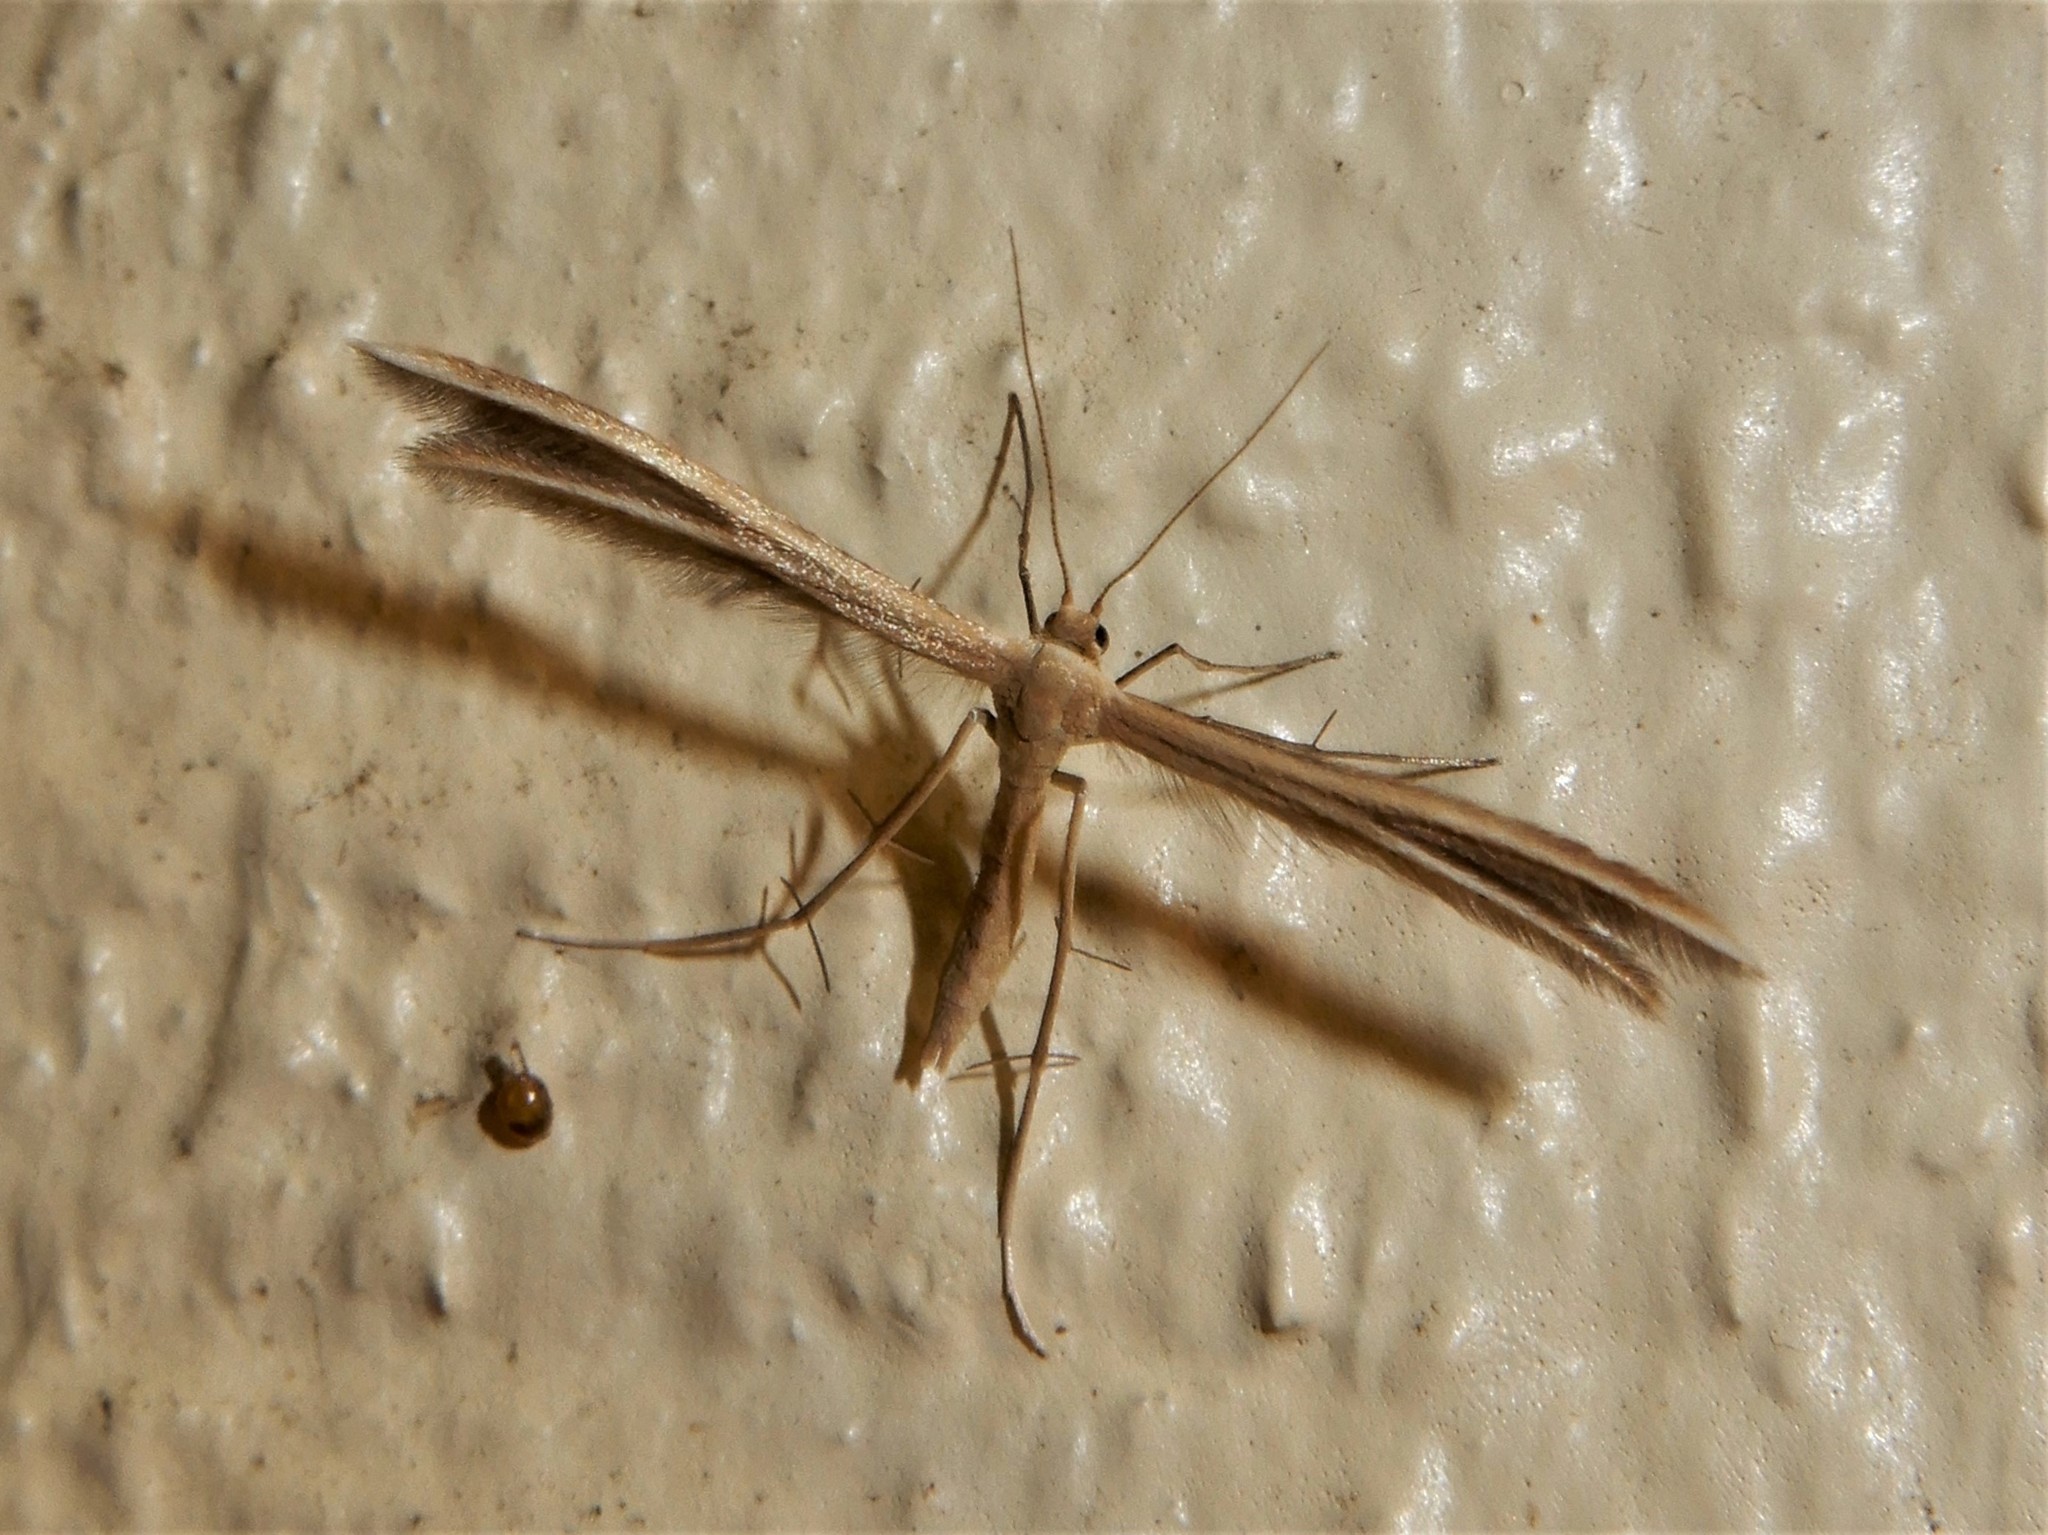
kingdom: Animalia
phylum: Arthropoda
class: Insecta
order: Lepidoptera
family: Pterophoridae
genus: Pterophorus
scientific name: Pterophorus innotatalis
